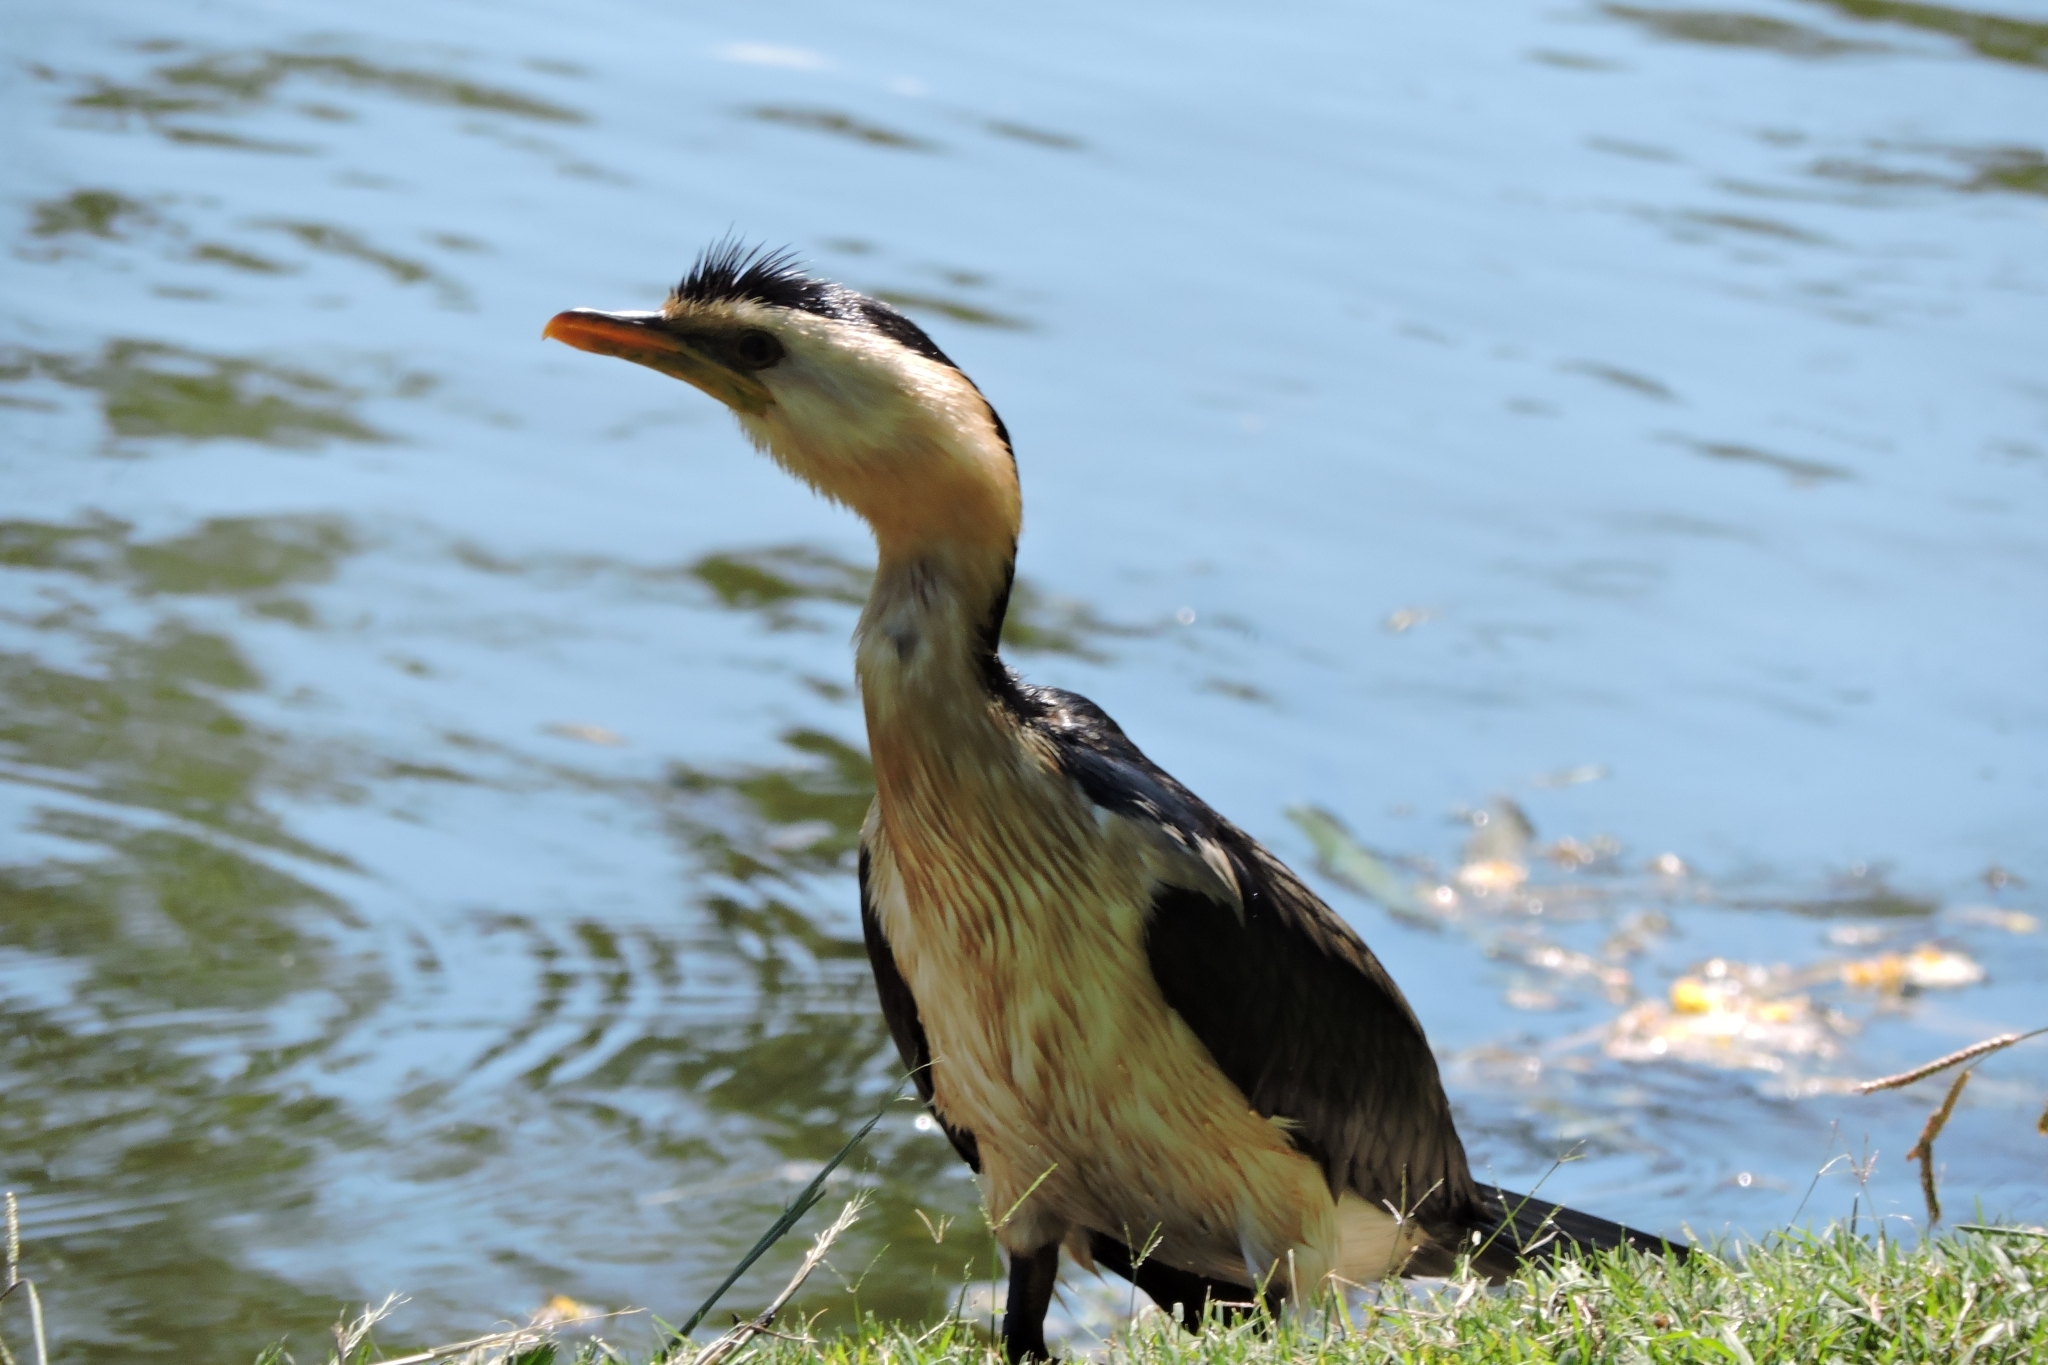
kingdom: Animalia
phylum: Chordata
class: Aves
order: Suliformes
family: Phalacrocoracidae
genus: Microcarbo
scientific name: Microcarbo melanoleucos
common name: Little pied cormorant
